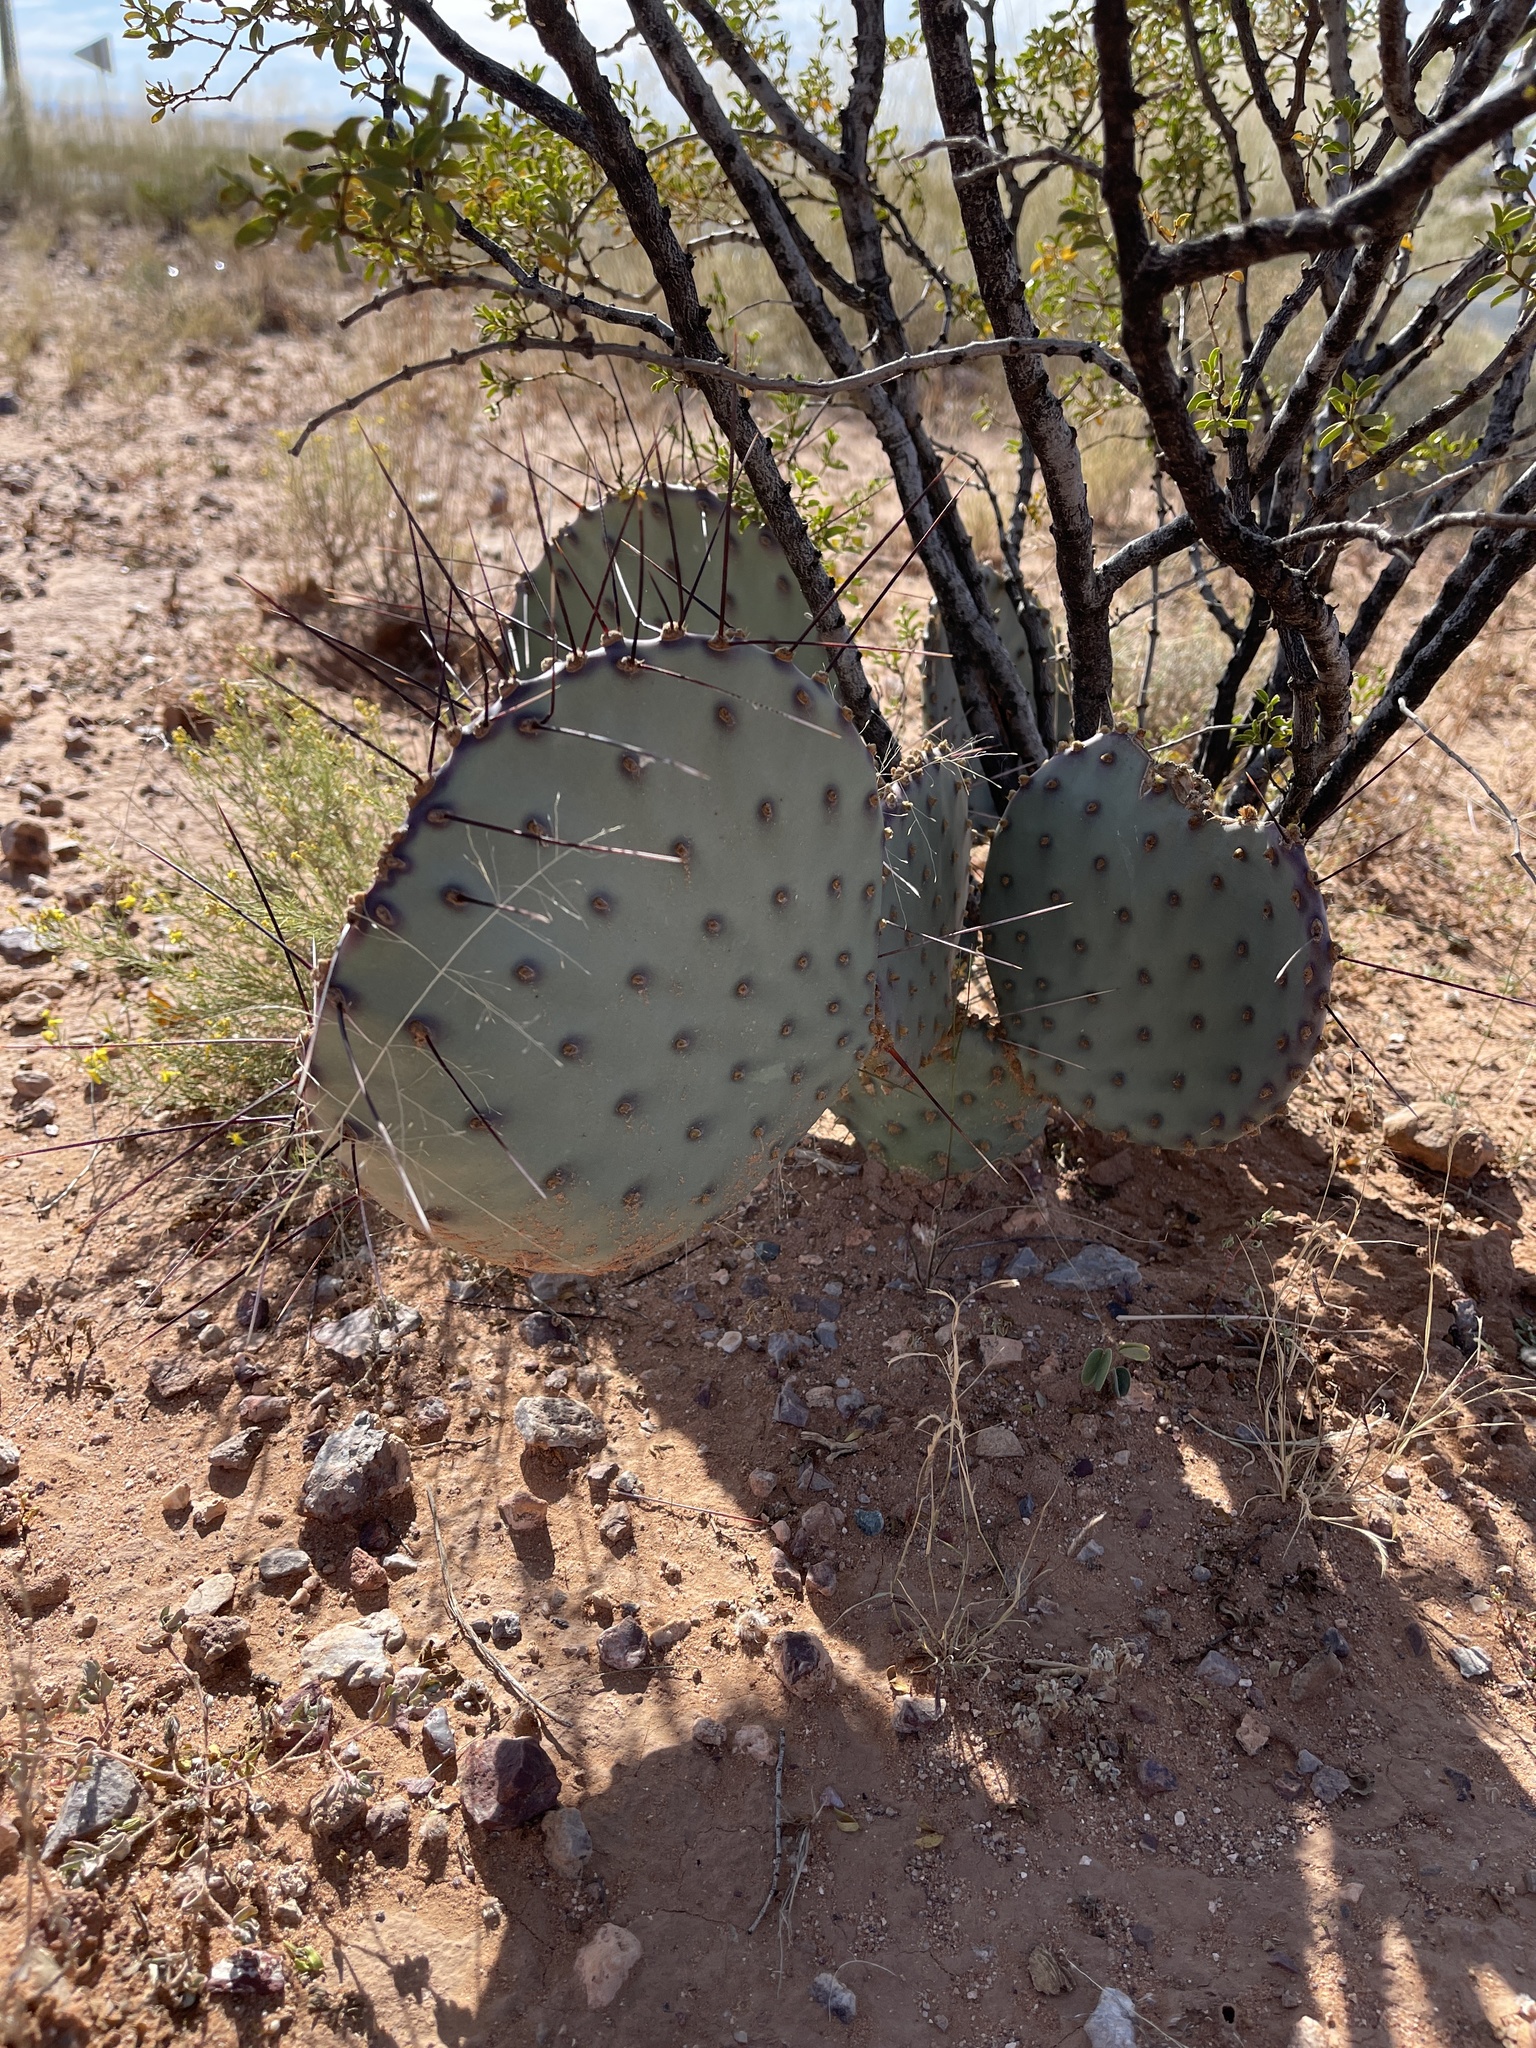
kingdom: Plantae
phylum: Tracheophyta
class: Magnoliopsida
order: Caryophyllales
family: Cactaceae
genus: Opuntia
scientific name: Opuntia macrocentra
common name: Purple prickly-pear
